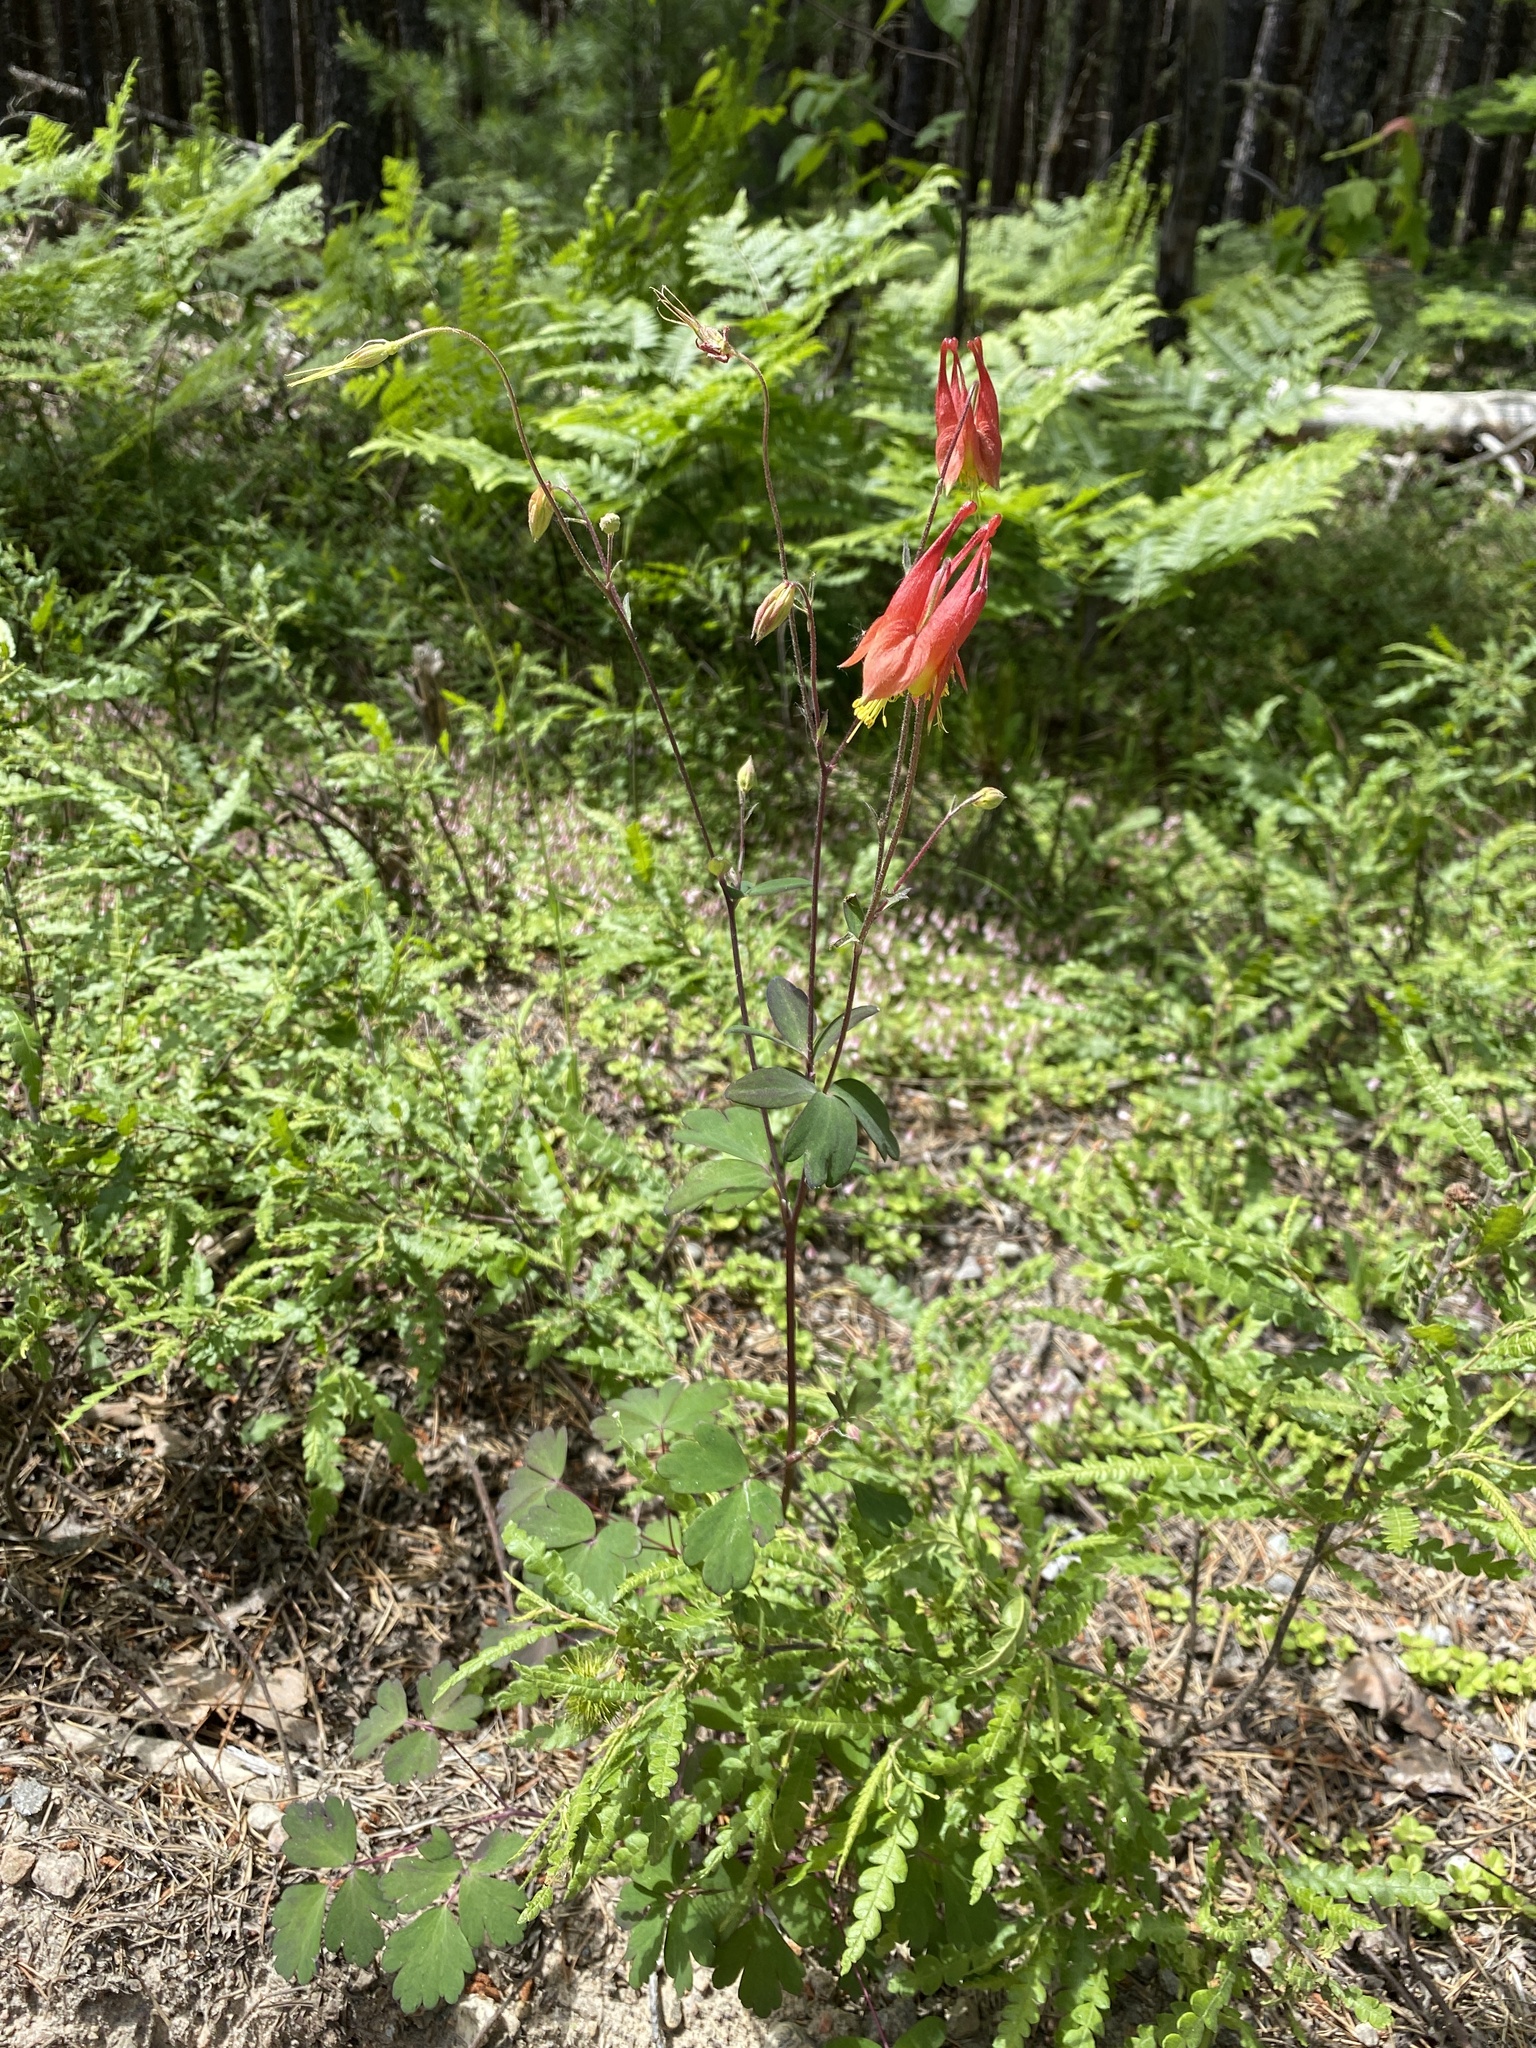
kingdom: Plantae
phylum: Tracheophyta
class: Magnoliopsida
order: Ranunculales
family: Ranunculaceae
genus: Aquilegia
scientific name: Aquilegia canadensis
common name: American columbine
